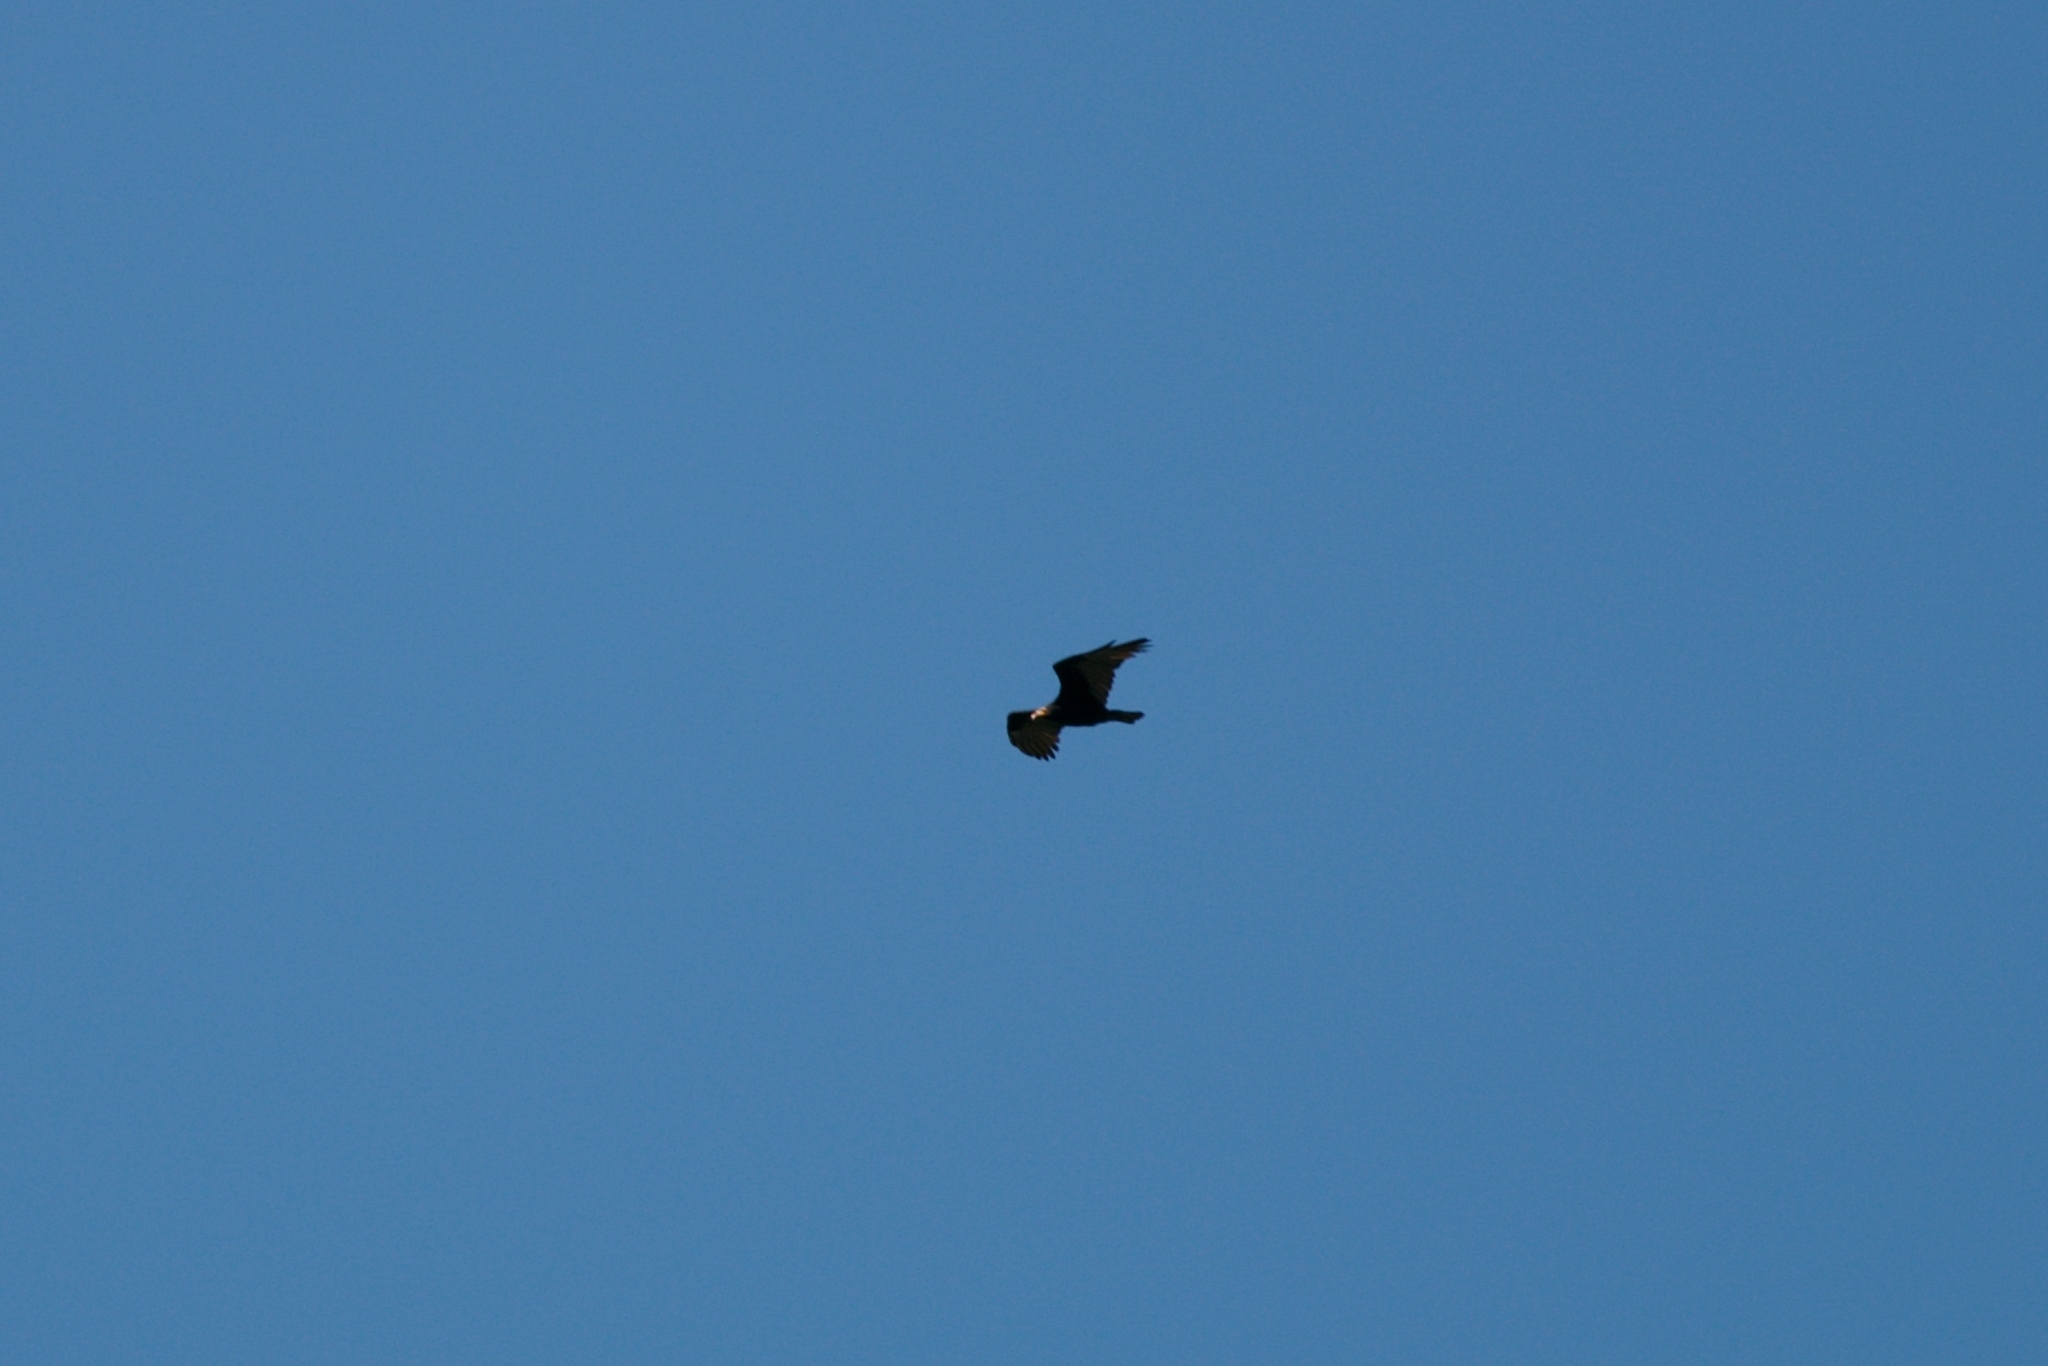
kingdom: Animalia
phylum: Chordata
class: Aves
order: Accipitriformes
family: Cathartidae
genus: Cathartes
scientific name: Cathartes burrovianus
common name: Lesser yellow-headed vulture
